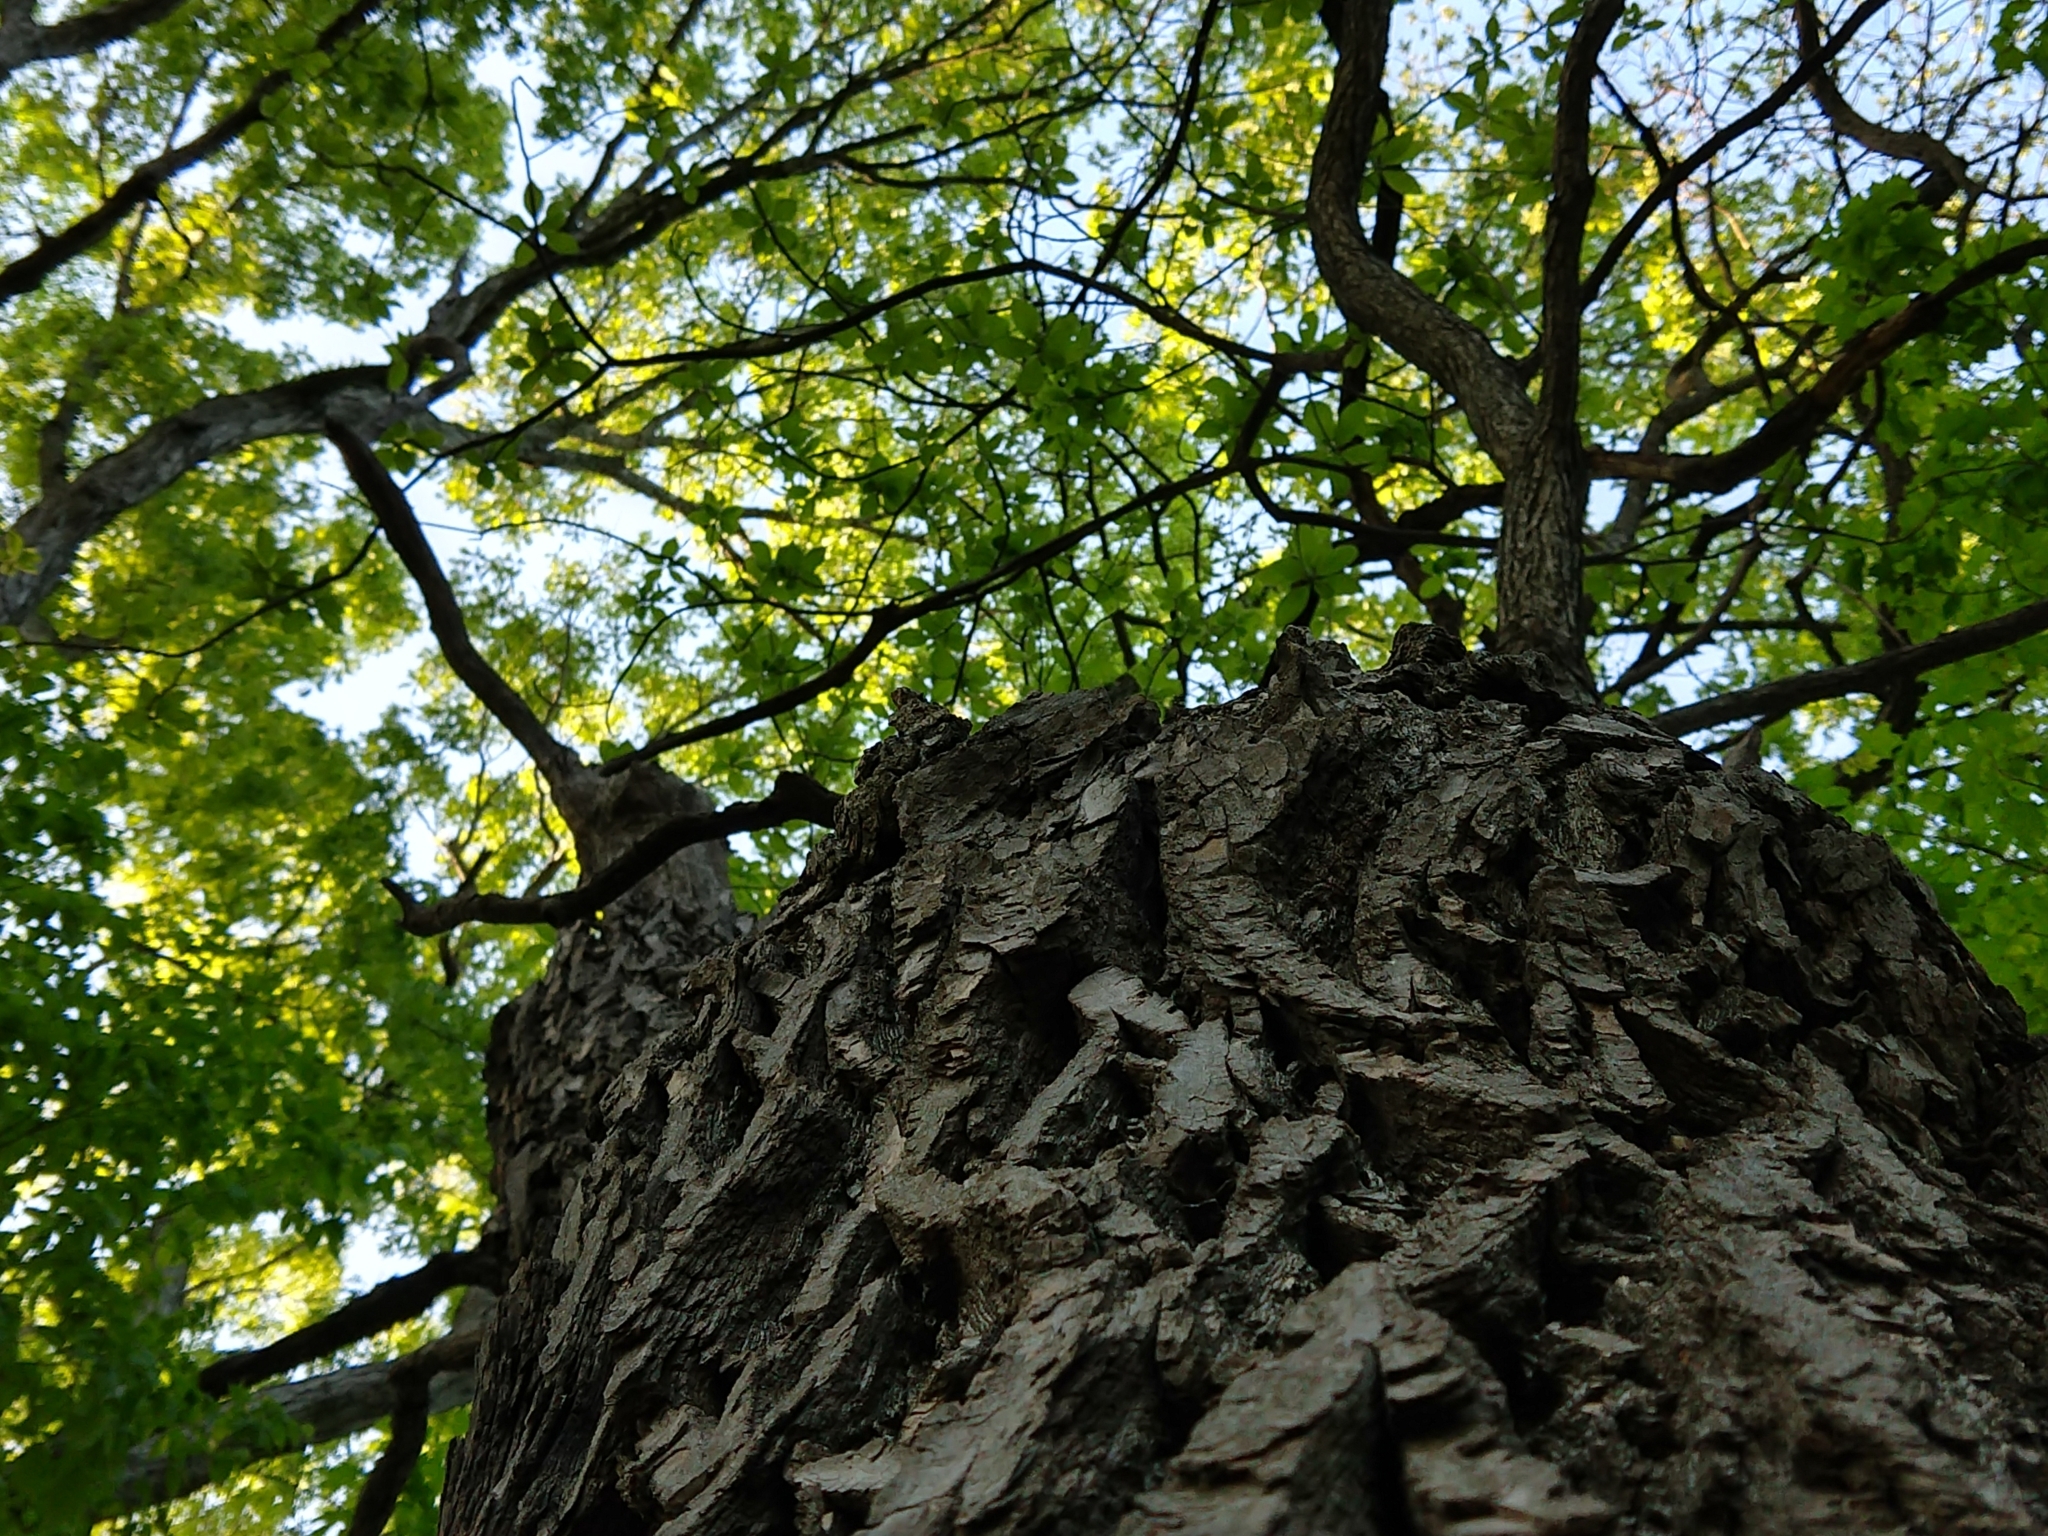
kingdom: Plantae
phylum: Tracheophyta
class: Magnoliopsida
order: Laurales
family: Lauraceae
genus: Sassafras
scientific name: Sassafras albidum
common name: Sassafras
